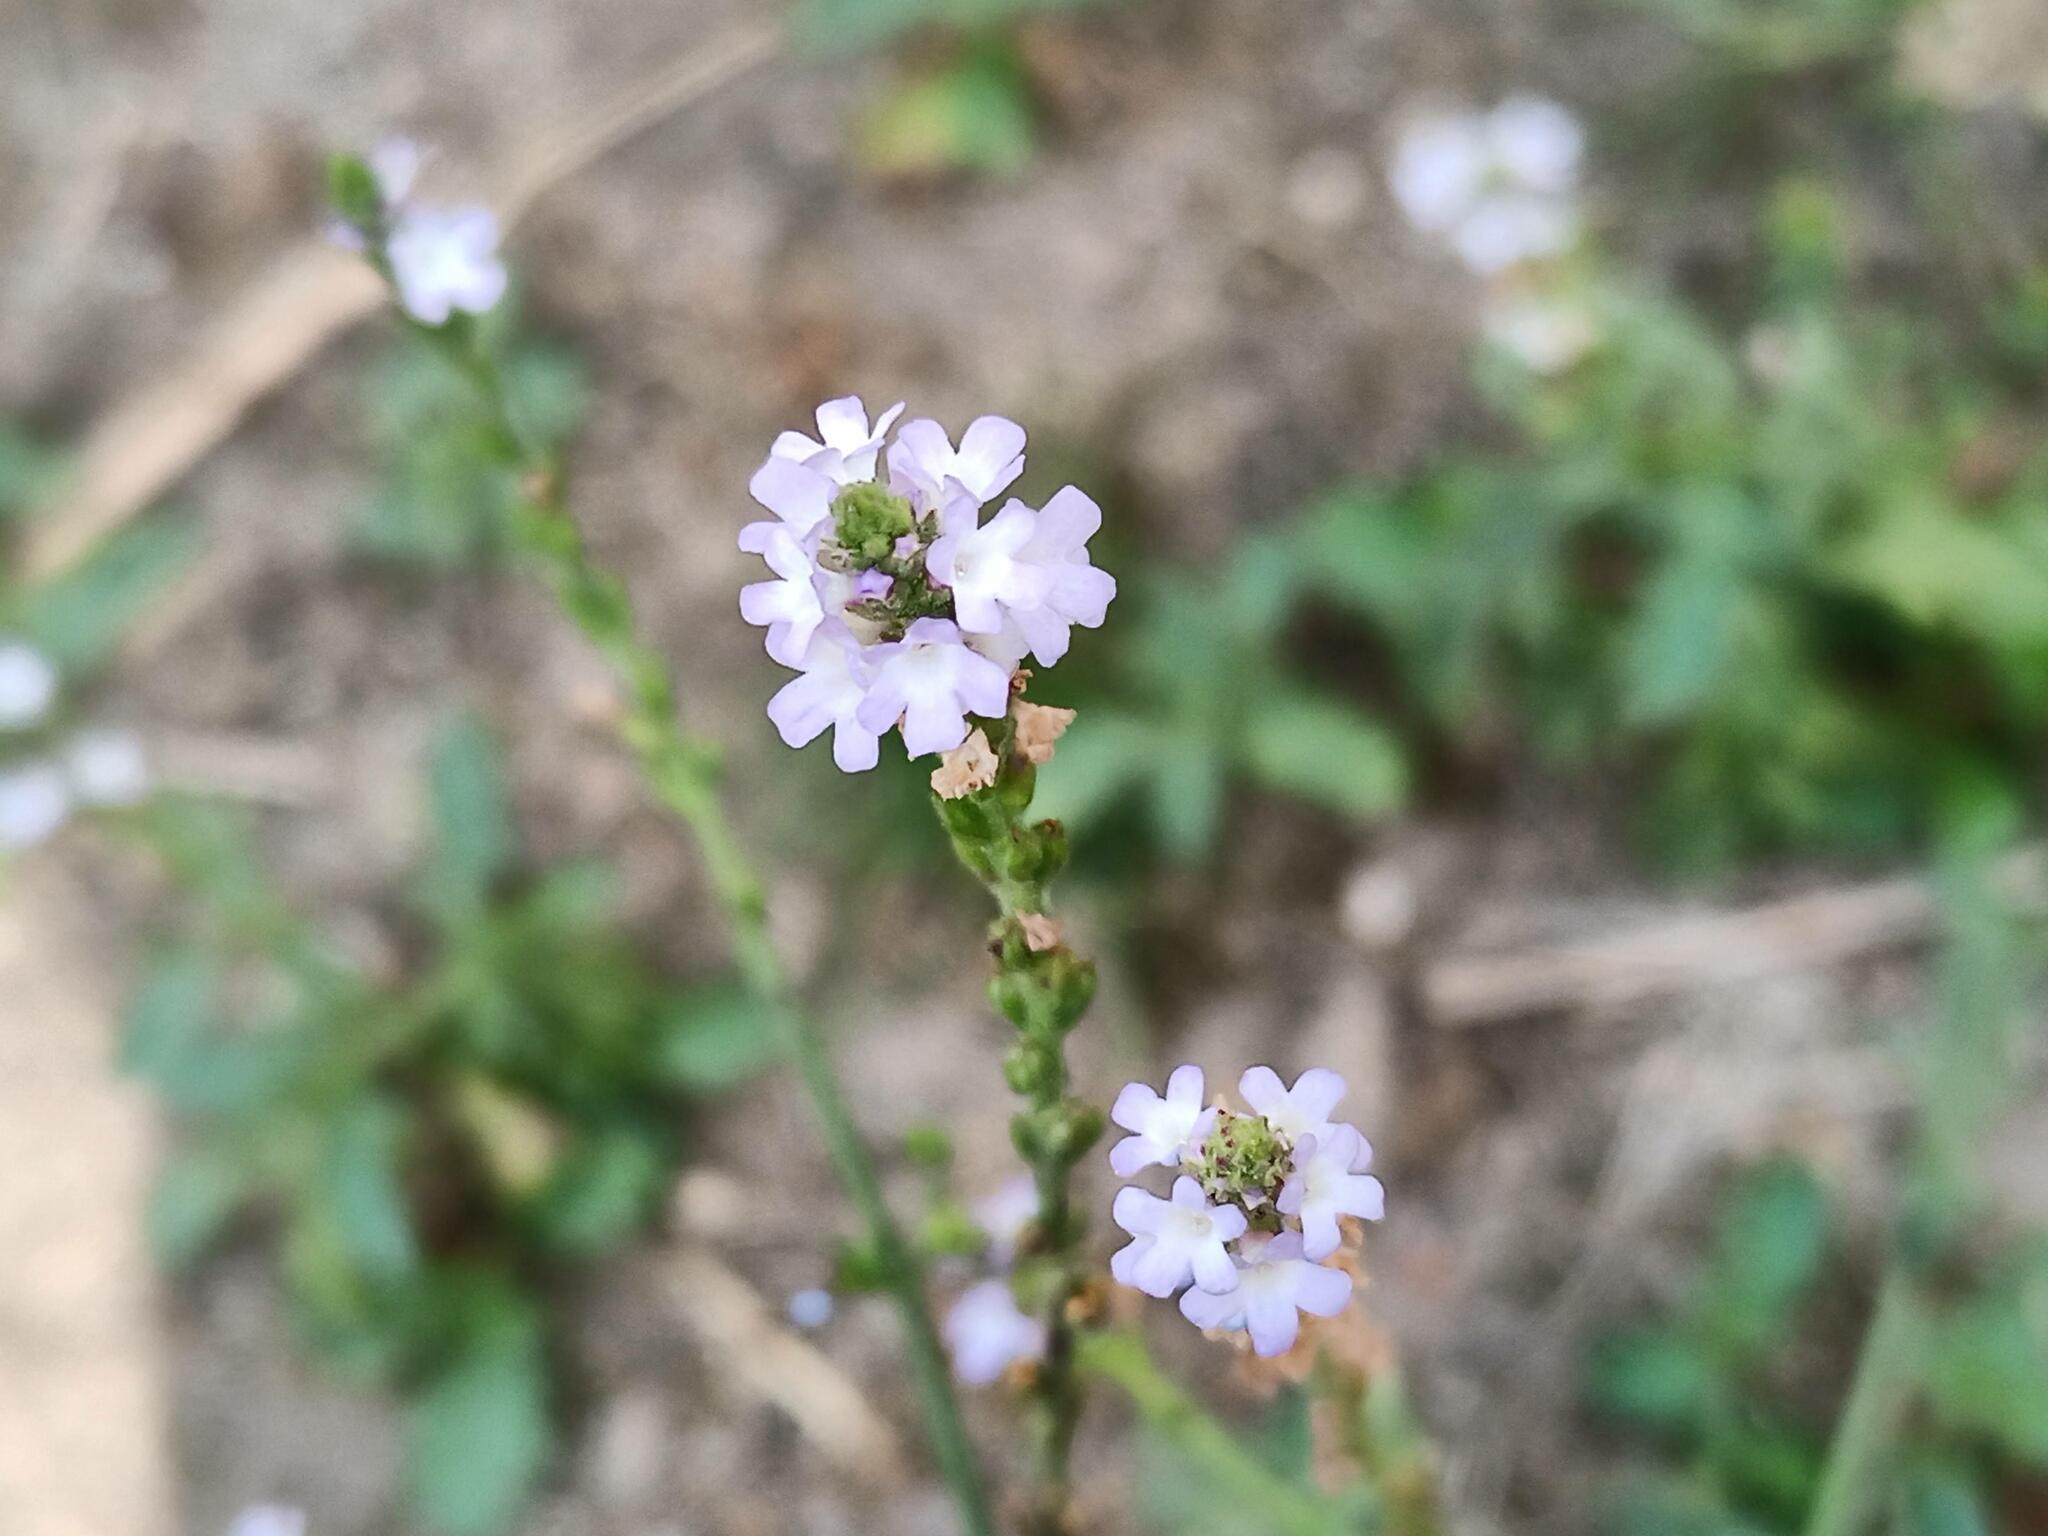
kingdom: Plantae
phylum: Tracheophyta
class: Magnoliopsida
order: Lamiales
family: Verbenaceae
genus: Verbena
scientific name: Verbena officinalis
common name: Vervain
